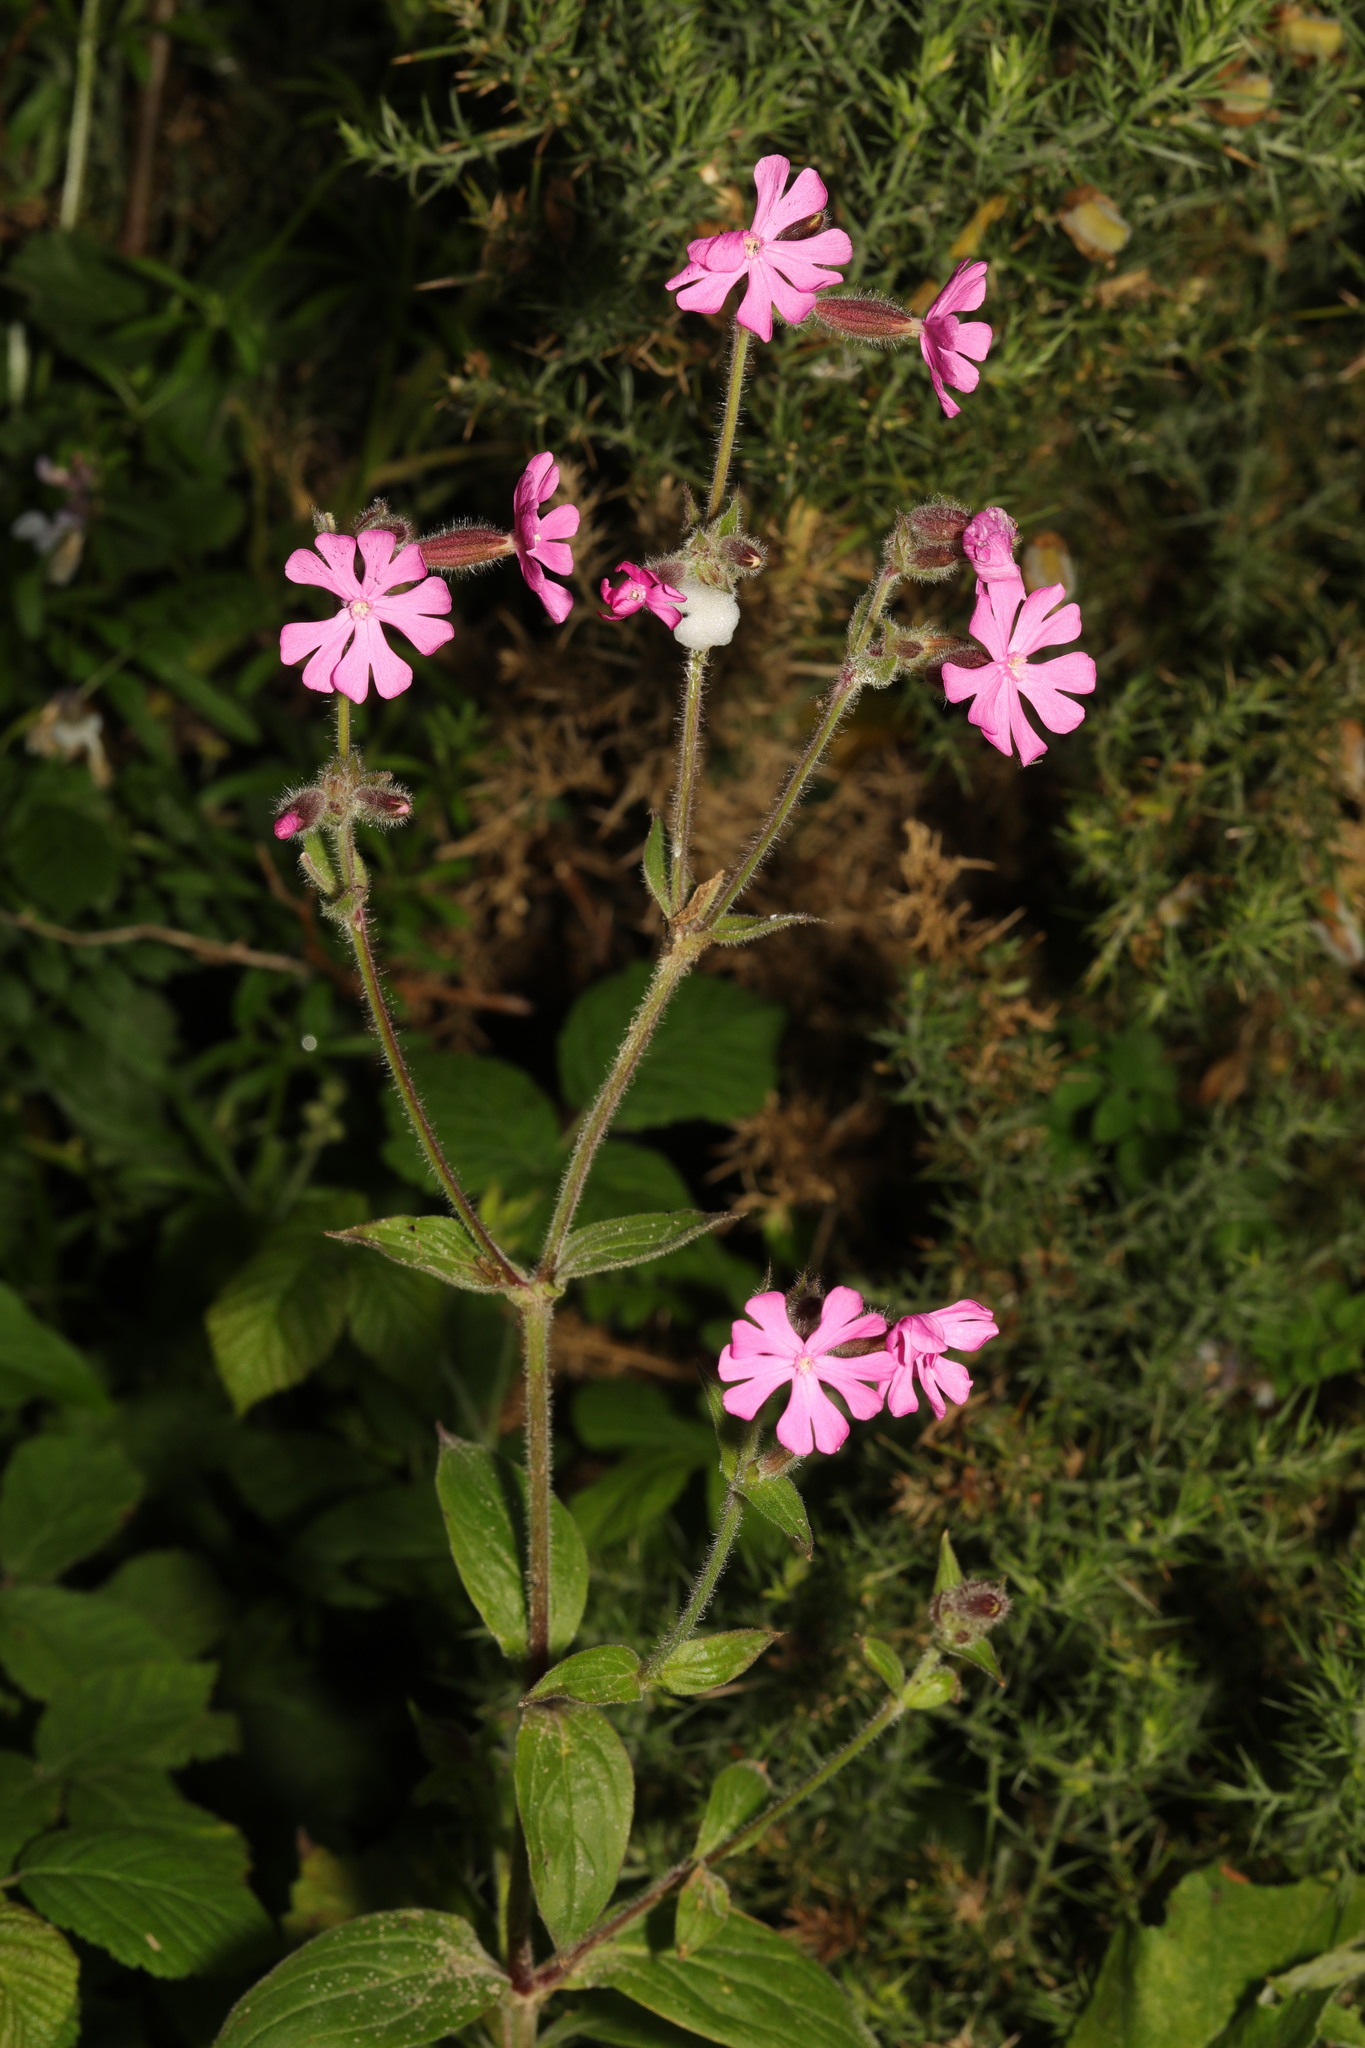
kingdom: Plantae
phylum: Tracheophyta
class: Magnoliopsida
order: Caryophyllales
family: Caryophyllaceae
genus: Silene
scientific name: Silene dioica
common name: Red campion
